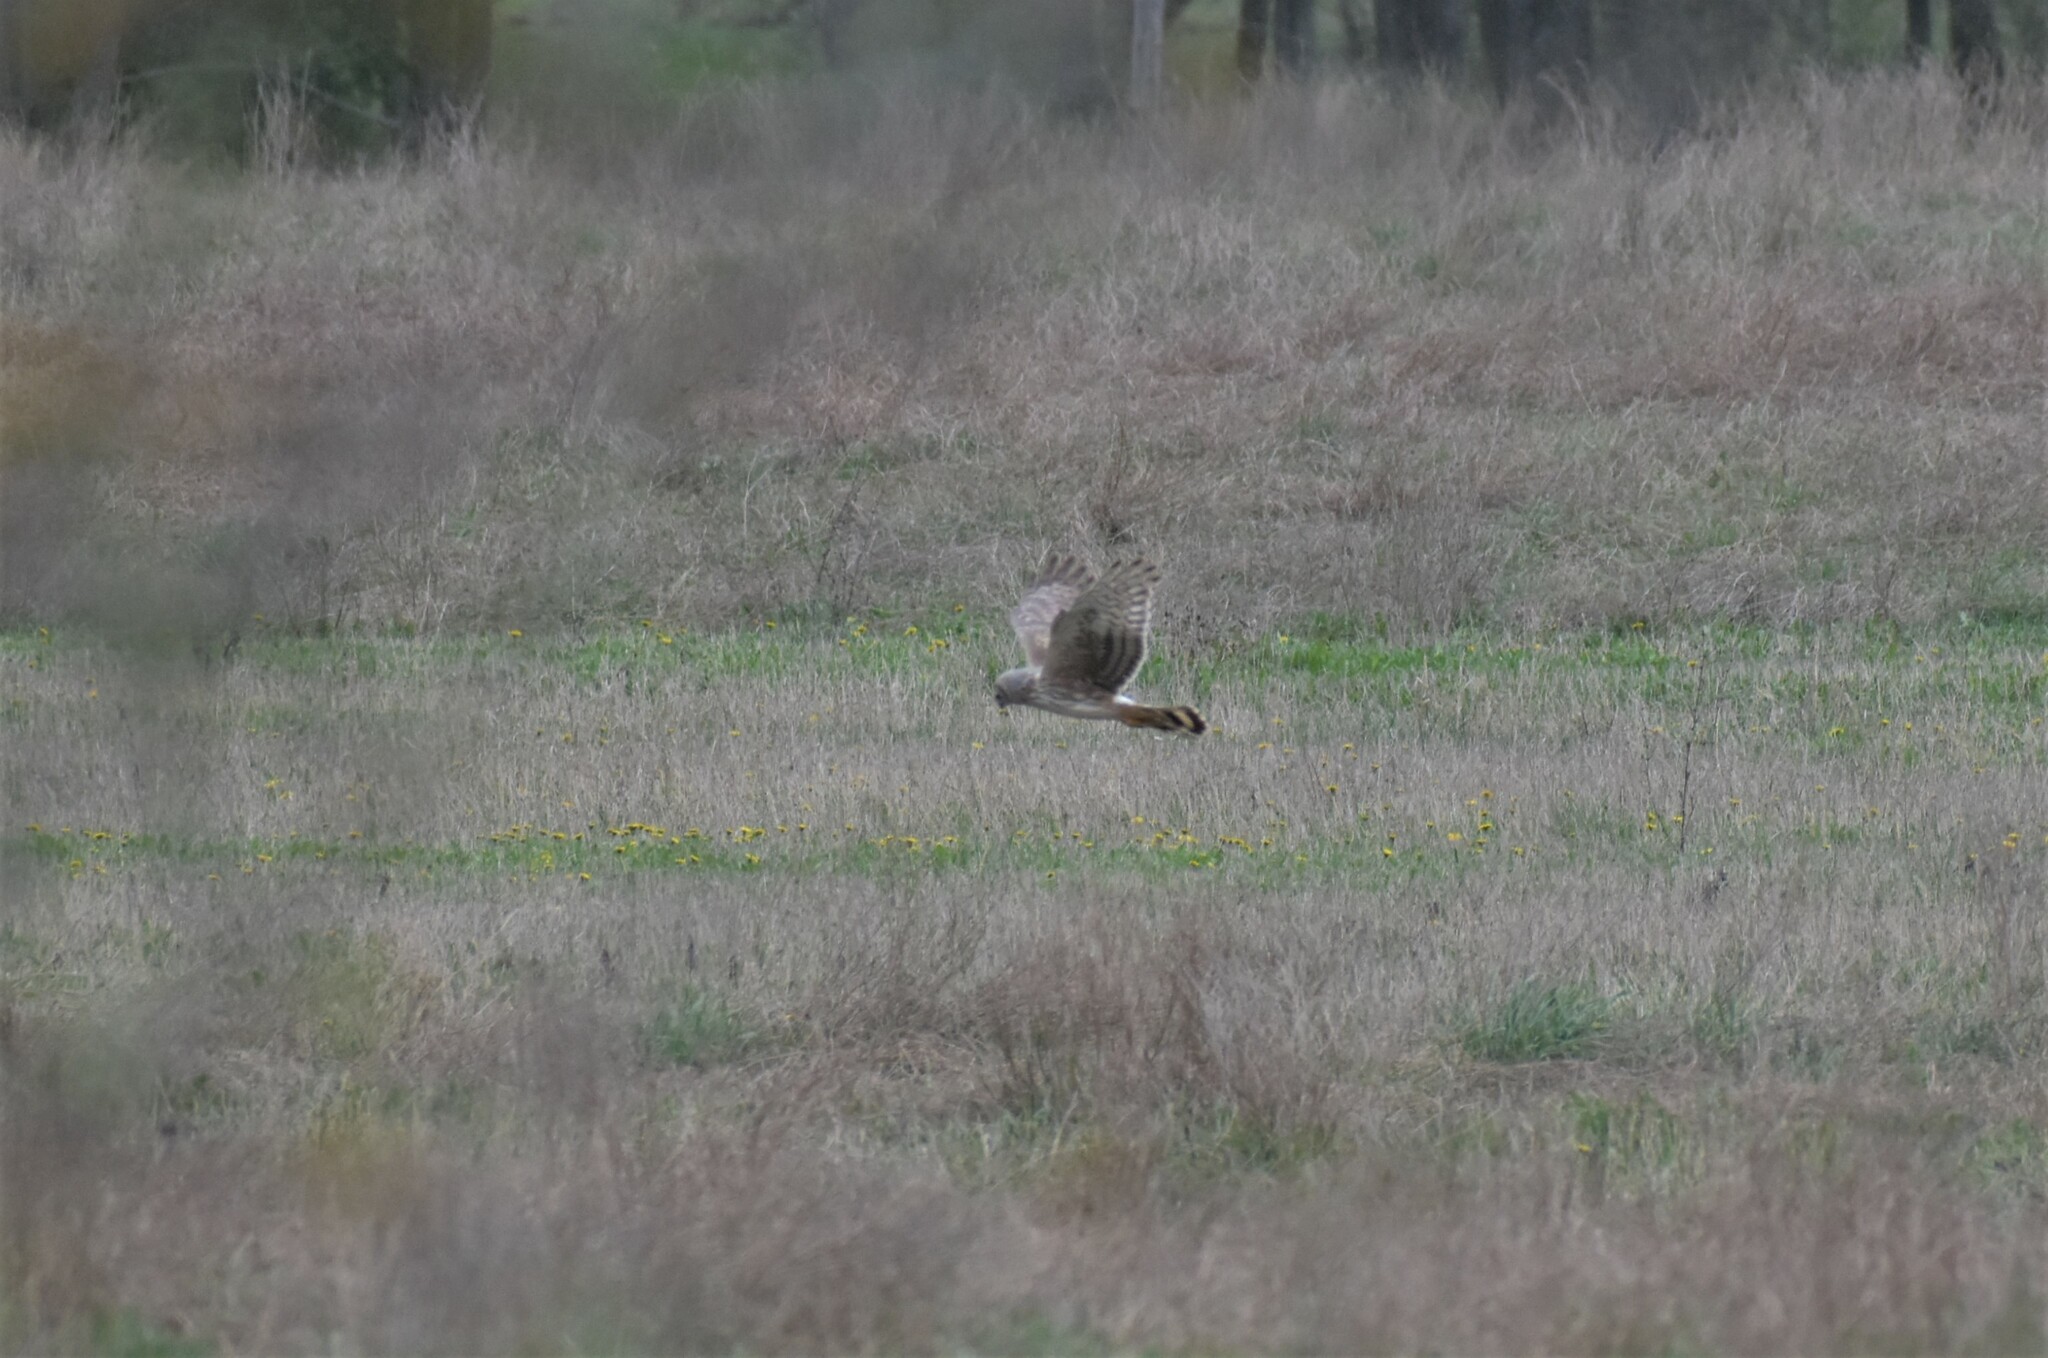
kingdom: Animalia
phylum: Chordata
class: Aves
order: Accipitriformes
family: Accipitridae
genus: Circus
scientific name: Circus cyaneus
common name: Hen harrier
